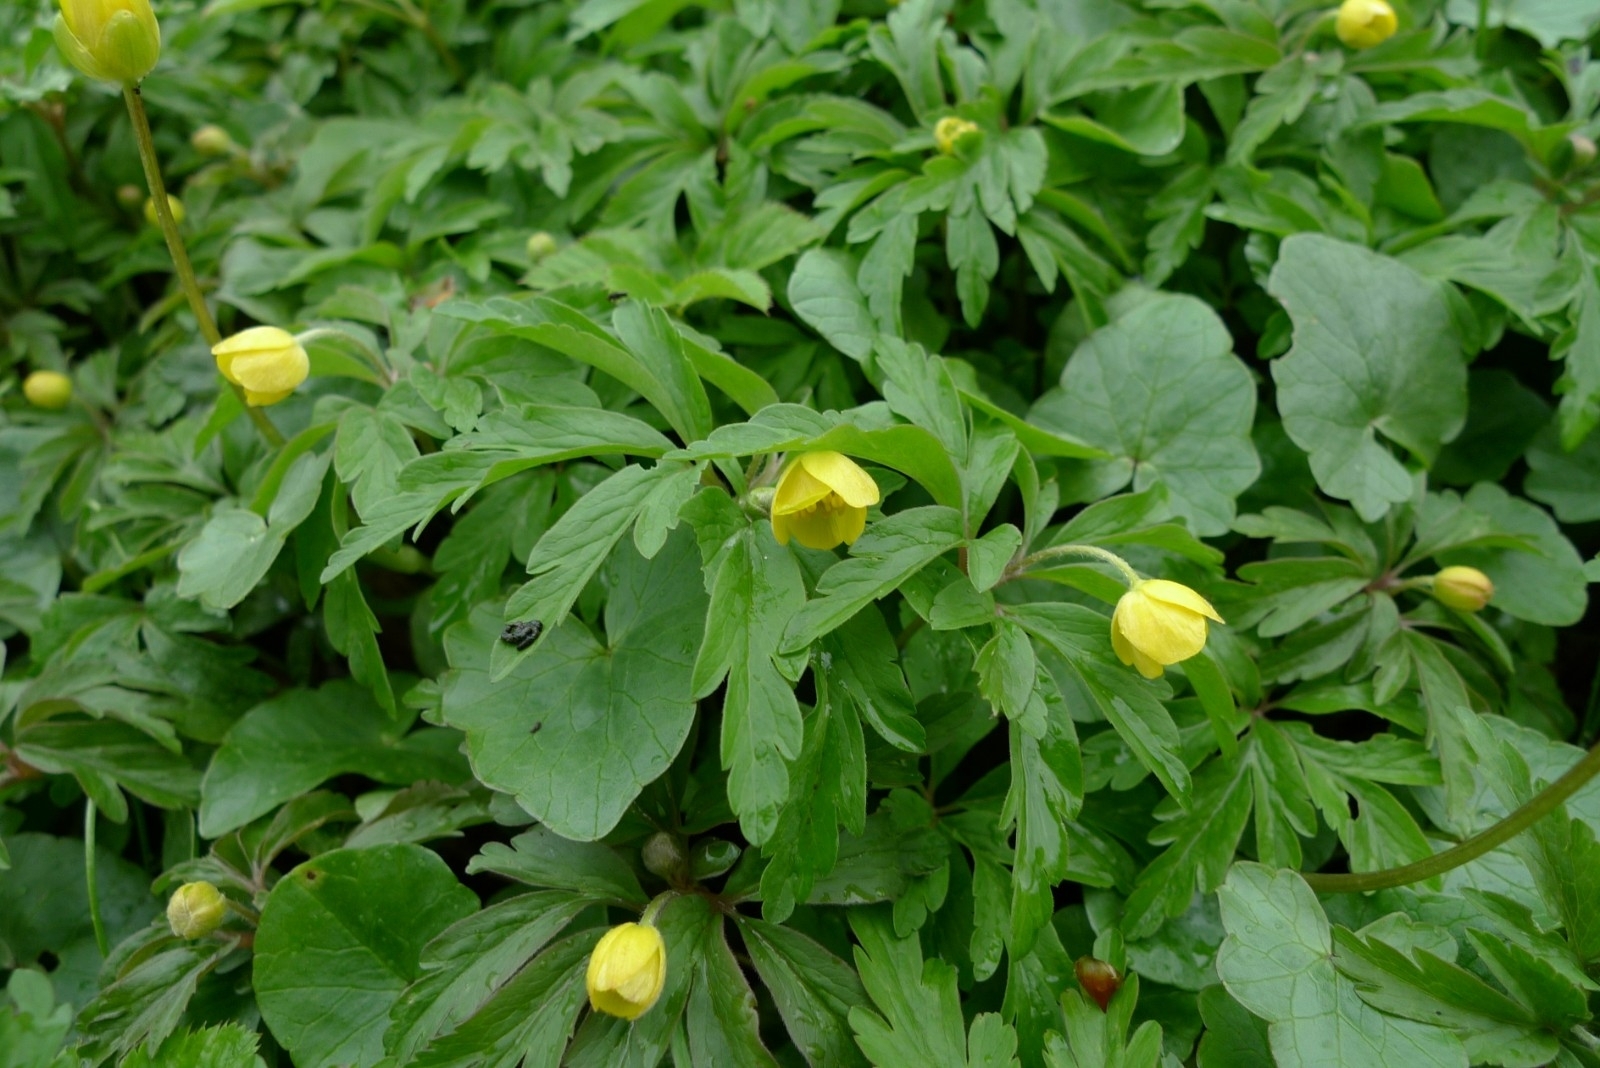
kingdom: Plantae
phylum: Tracheophyta
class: Magnoliopsida
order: Ranunculales
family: Ranunculaceae
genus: Anemone
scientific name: Anemone ranunculoides
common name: Yellow anemone
